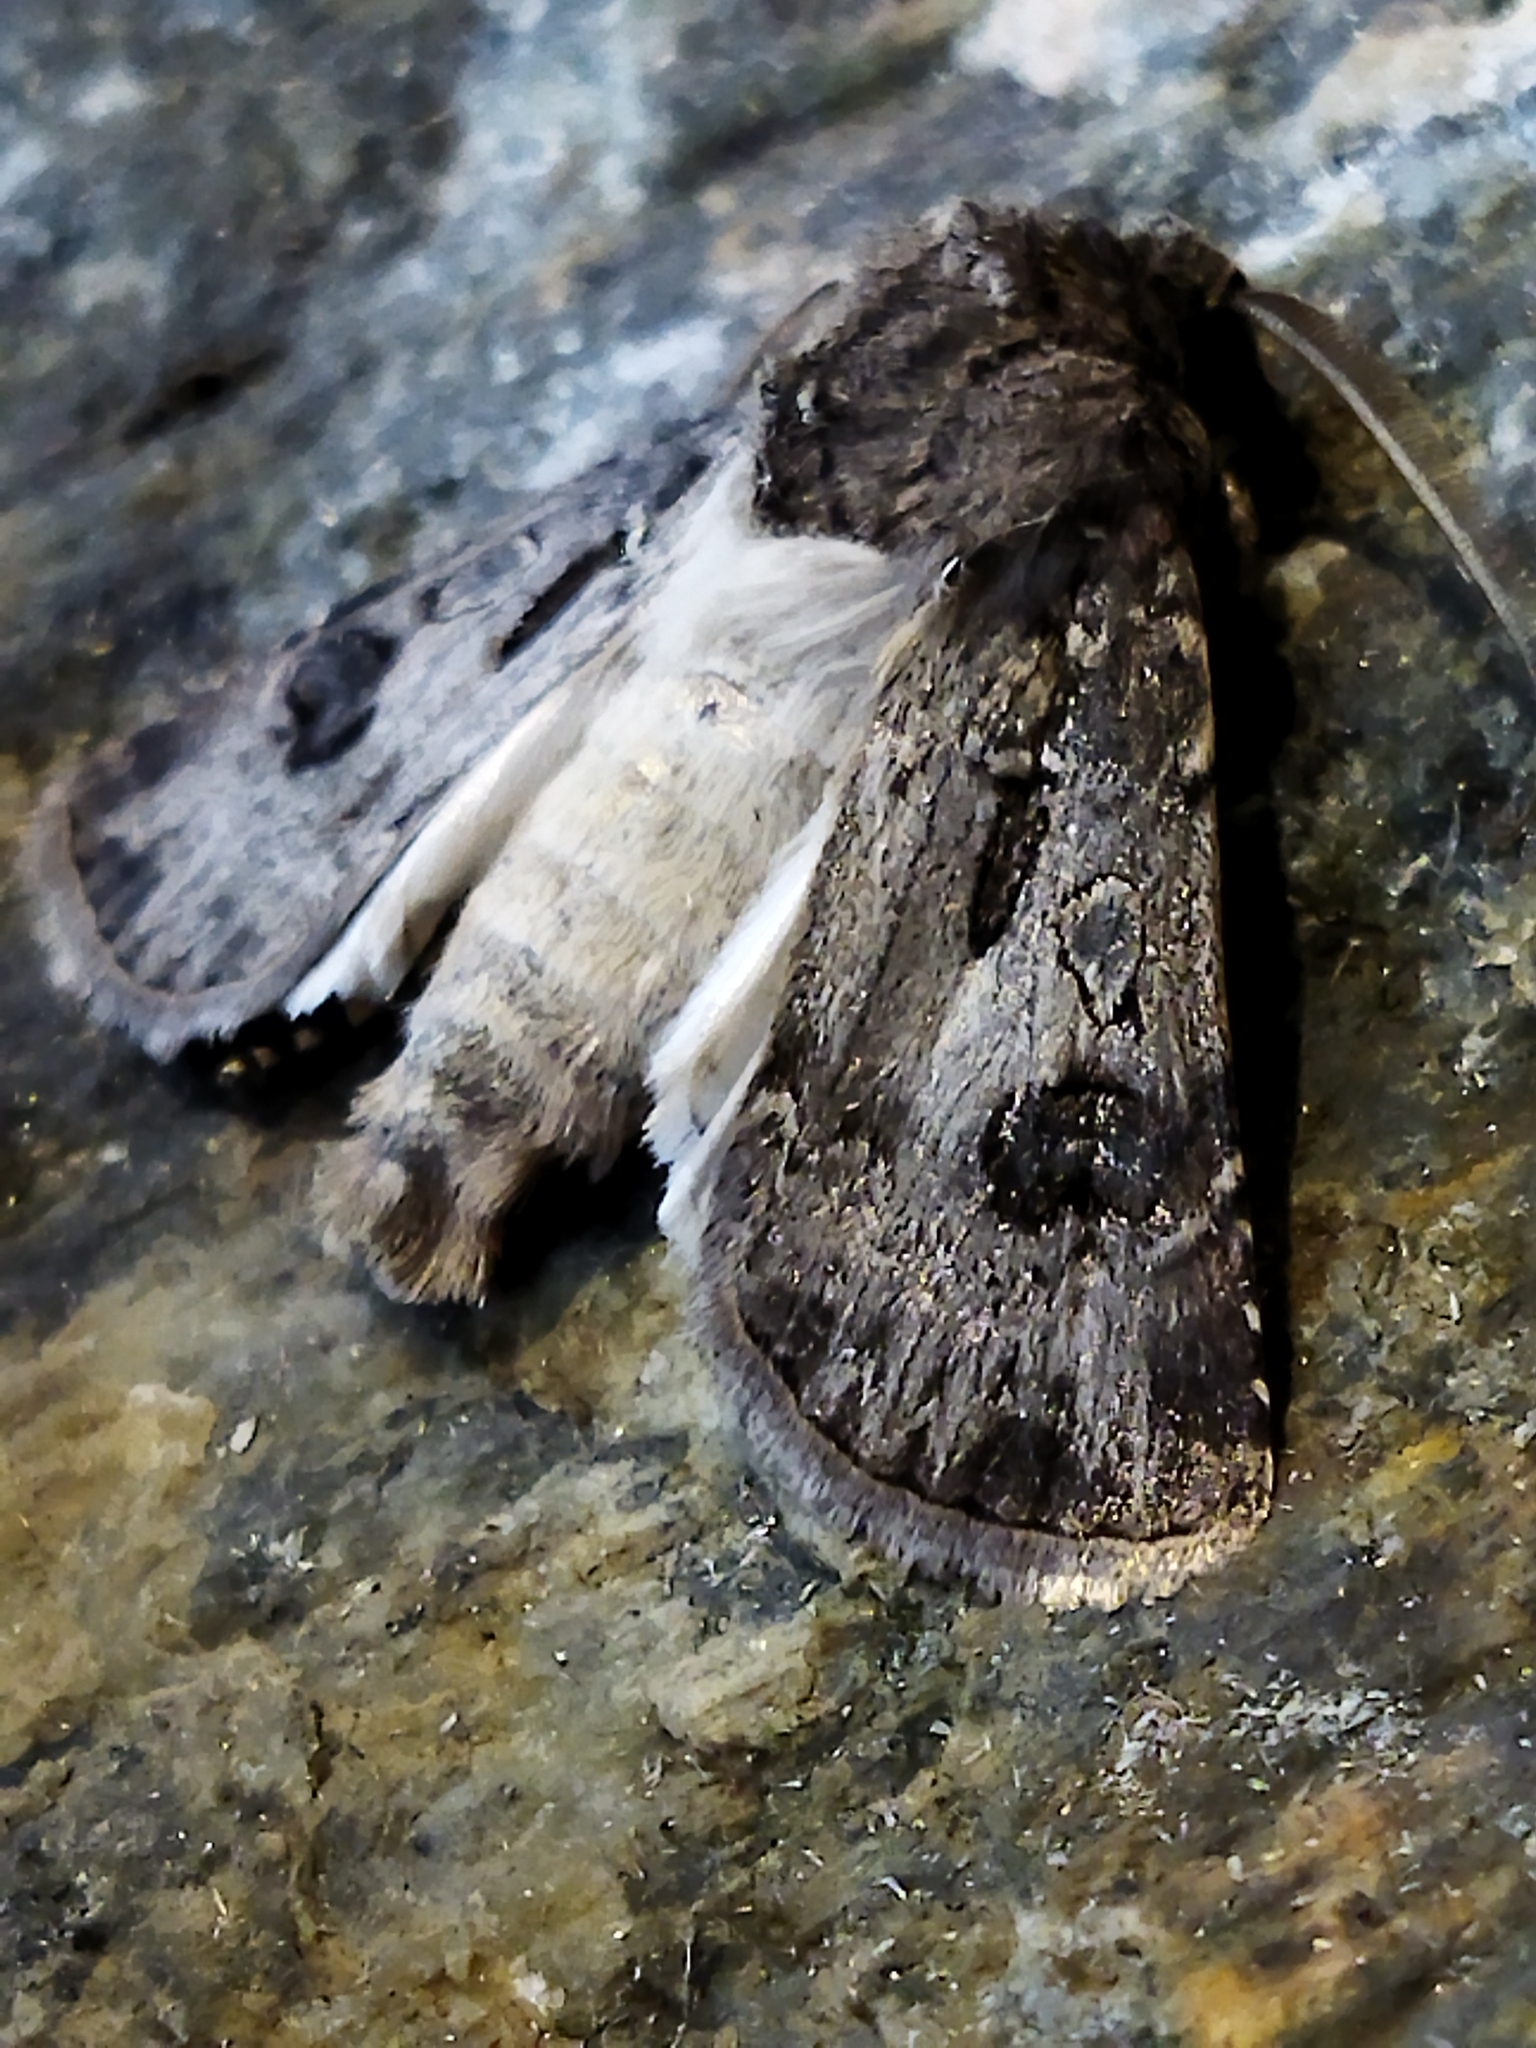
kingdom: Animalia
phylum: Arthropoda
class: Insecta
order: Lepidoptera
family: Noctuidae
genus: Agrotis
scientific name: Agrotis bigramma
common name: Great dart
